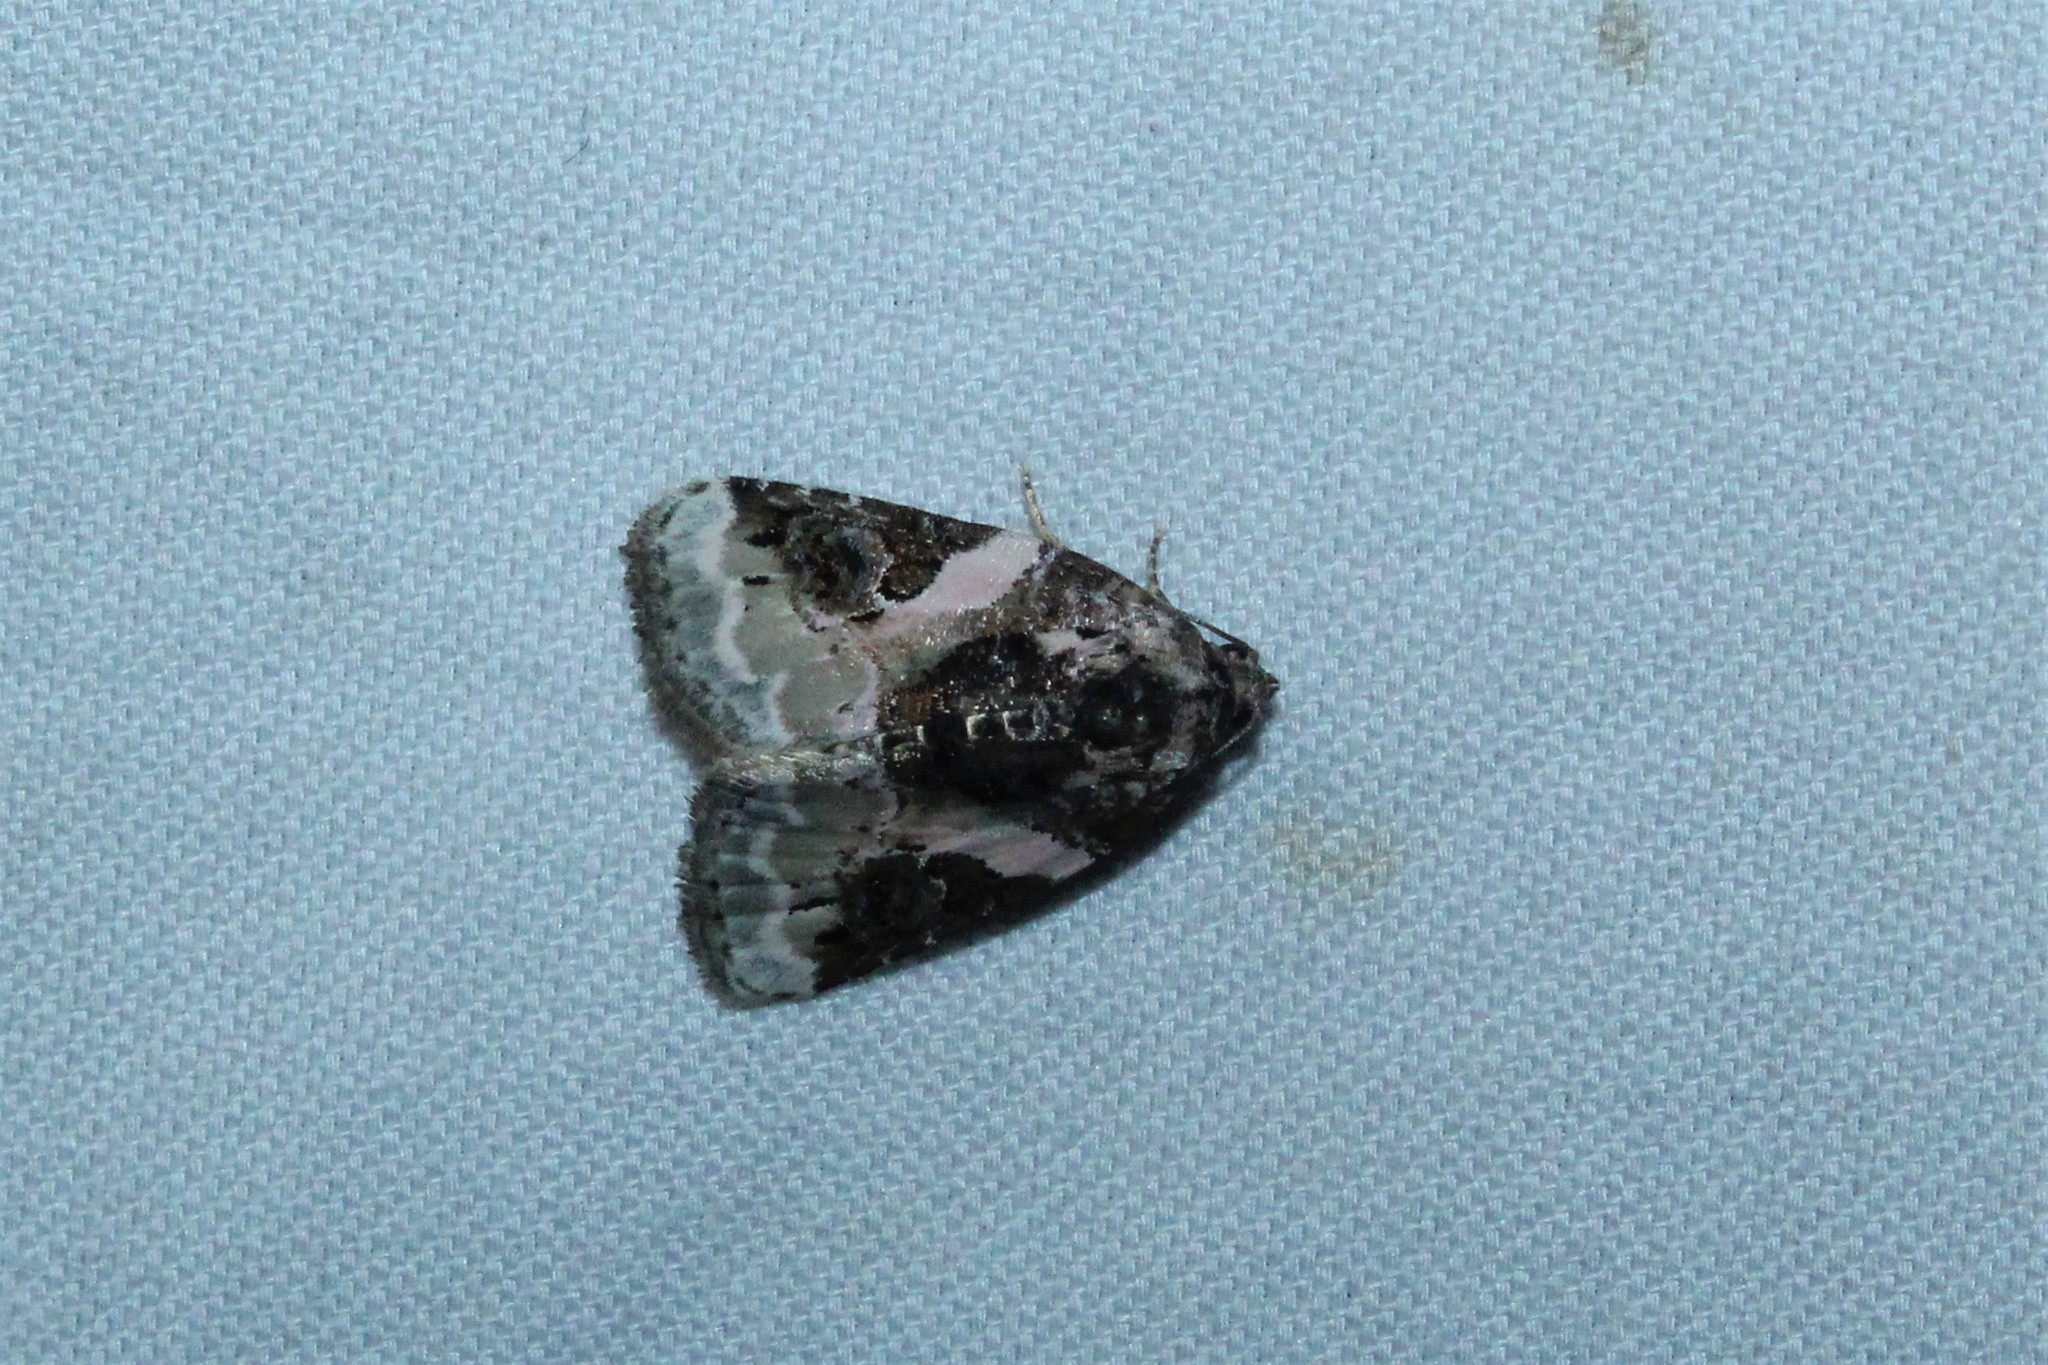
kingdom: Animalia
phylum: Arthropoda
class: Insecta
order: Lepidoptera
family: Noctuidae
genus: Pseudeustrotia
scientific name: Pseudeustrotia carneola
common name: Pink-barred lithacodia moth
